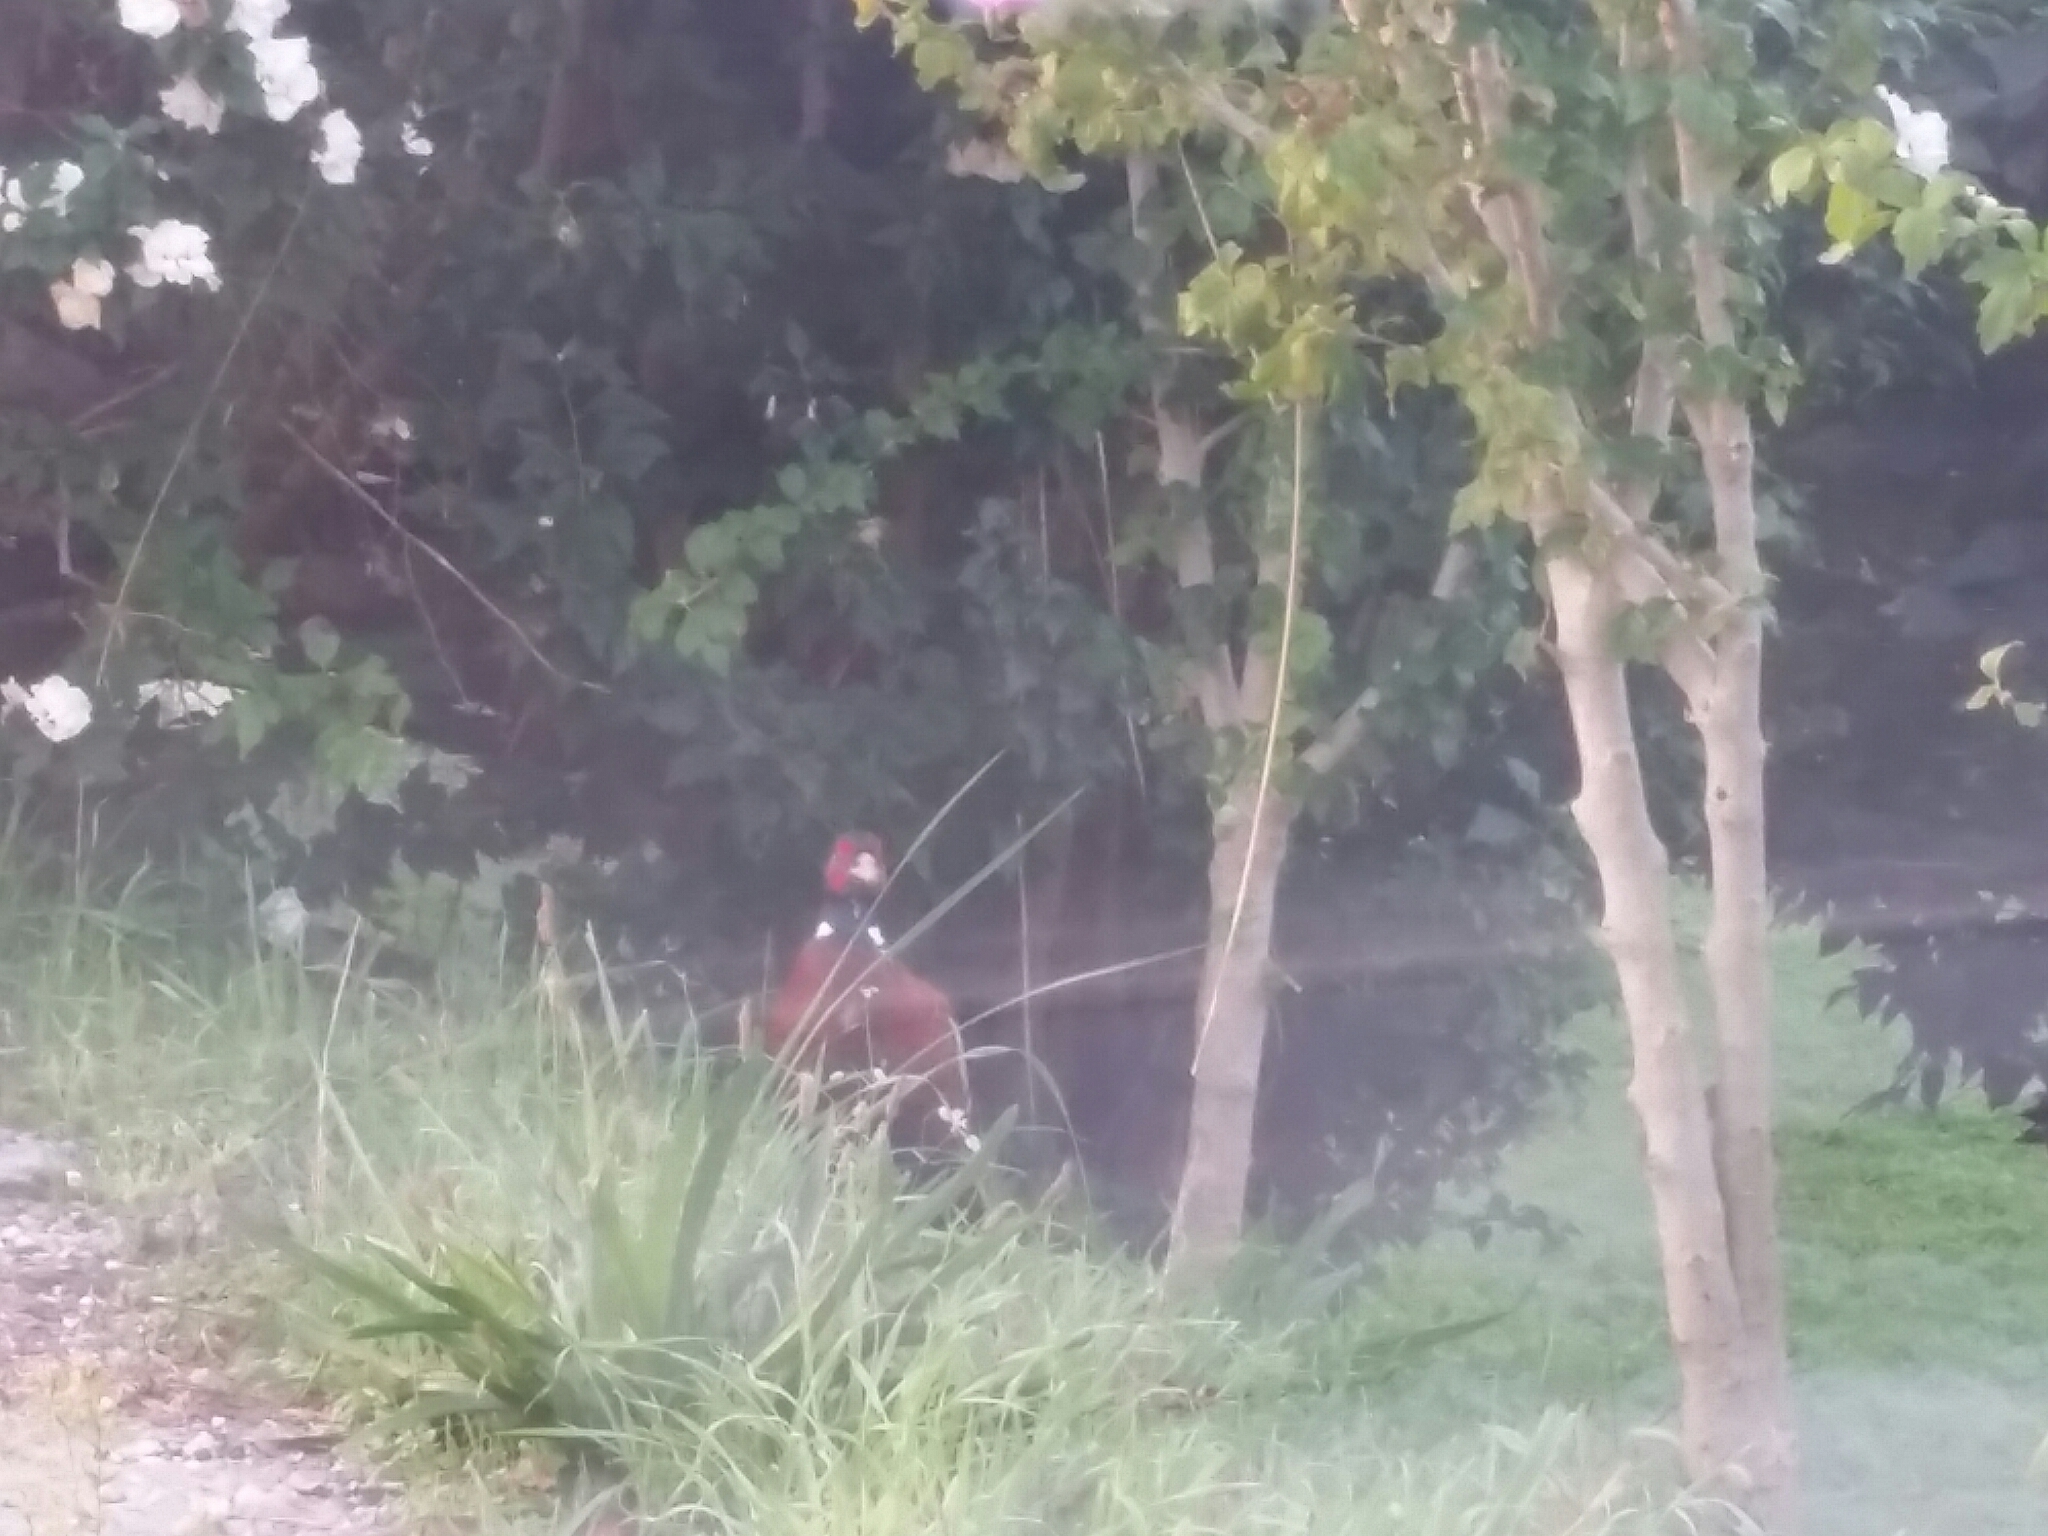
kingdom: Animalia
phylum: Chordata
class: Aves
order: Galliformes
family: Phasianidae
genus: Phasianus
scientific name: Phasianus colchicus
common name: Common pheasant
